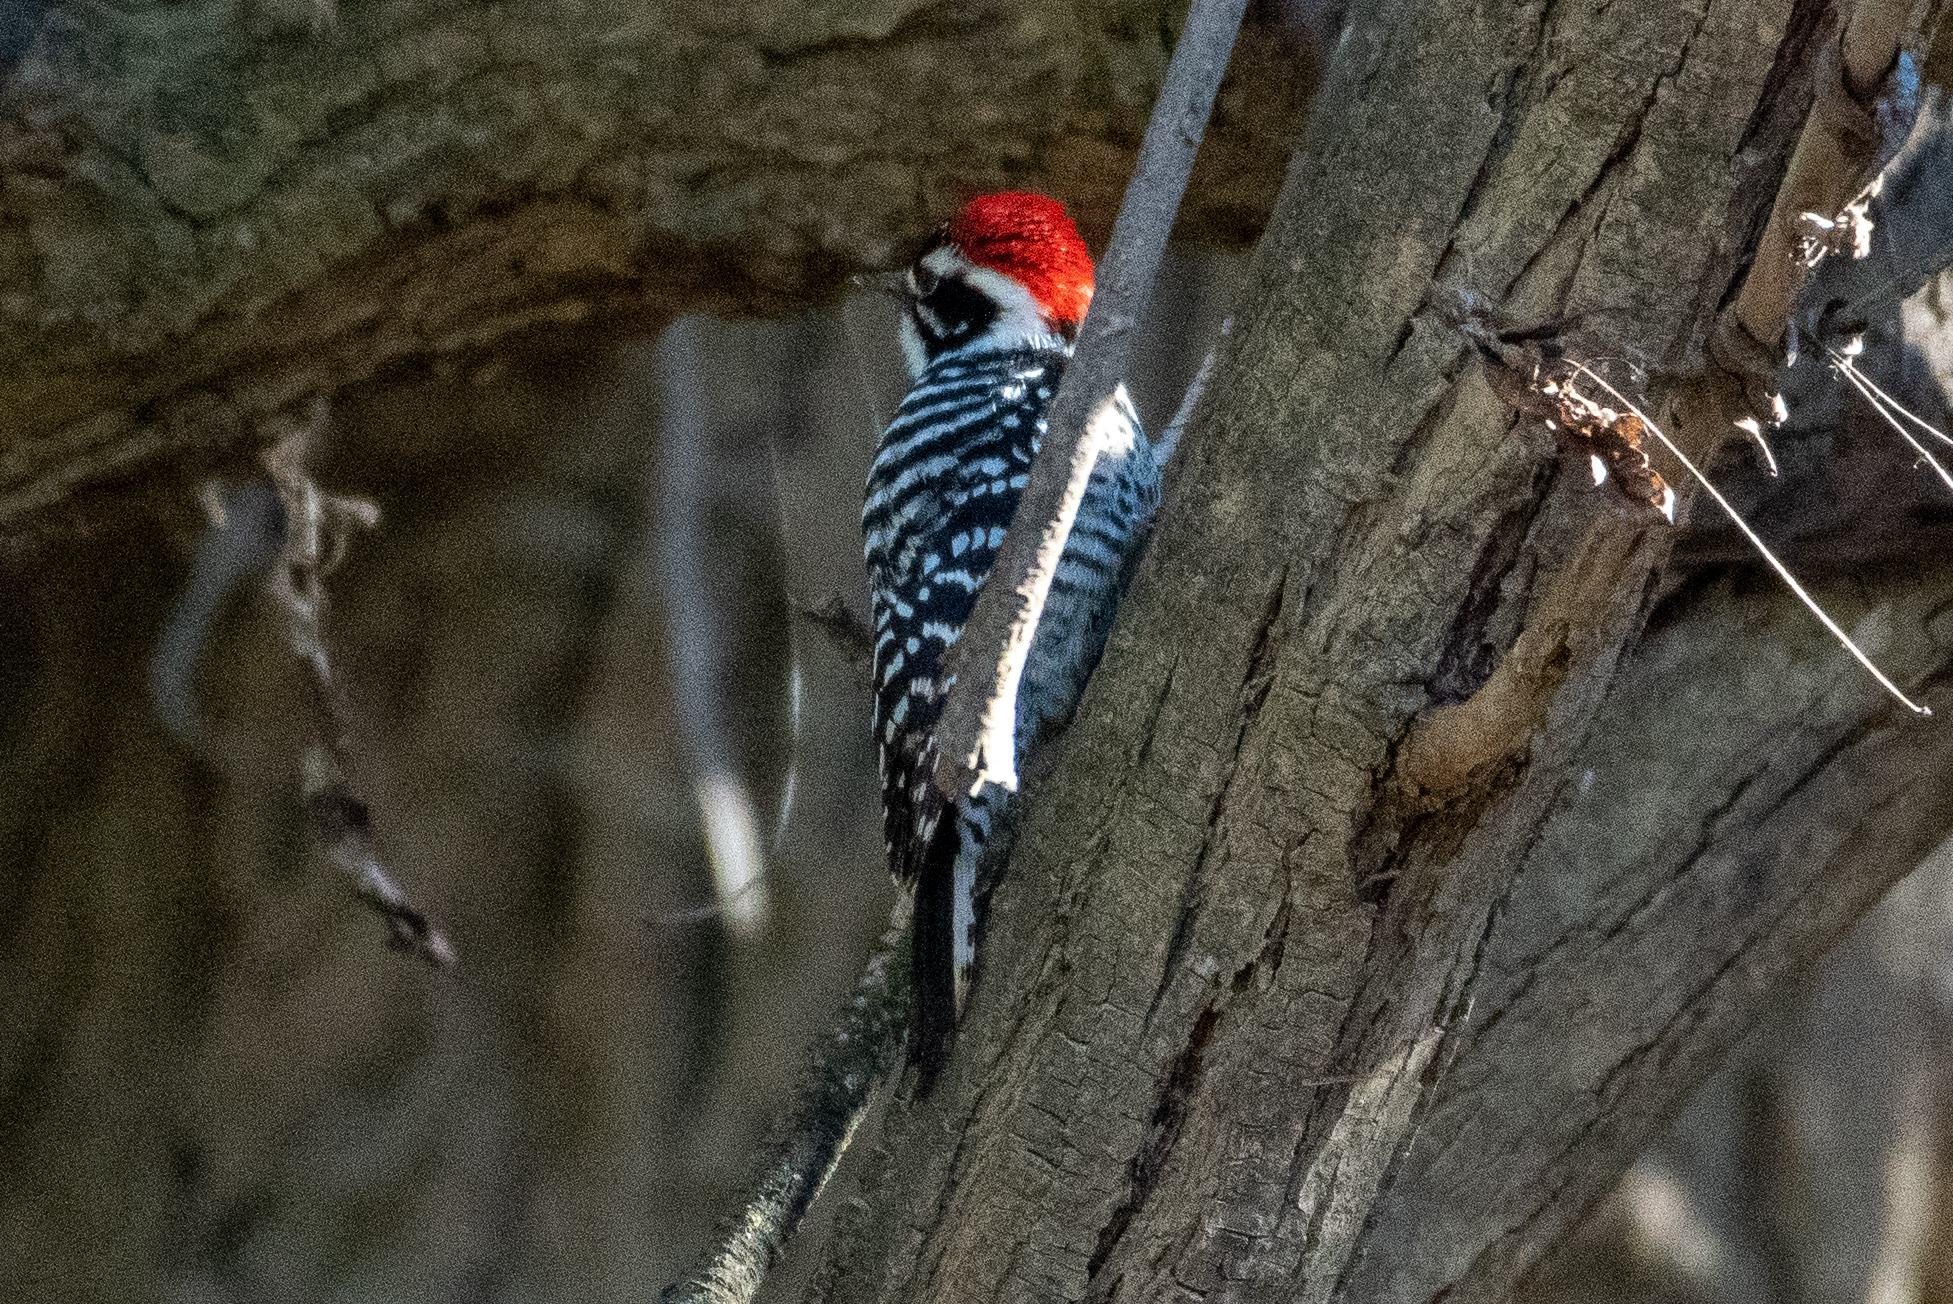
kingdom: Animalia
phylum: Chordata
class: Aves
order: Piciformes
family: Picidae
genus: Dryobates
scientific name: Dryobates nuttallii
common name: Nuttall's woodpecker
